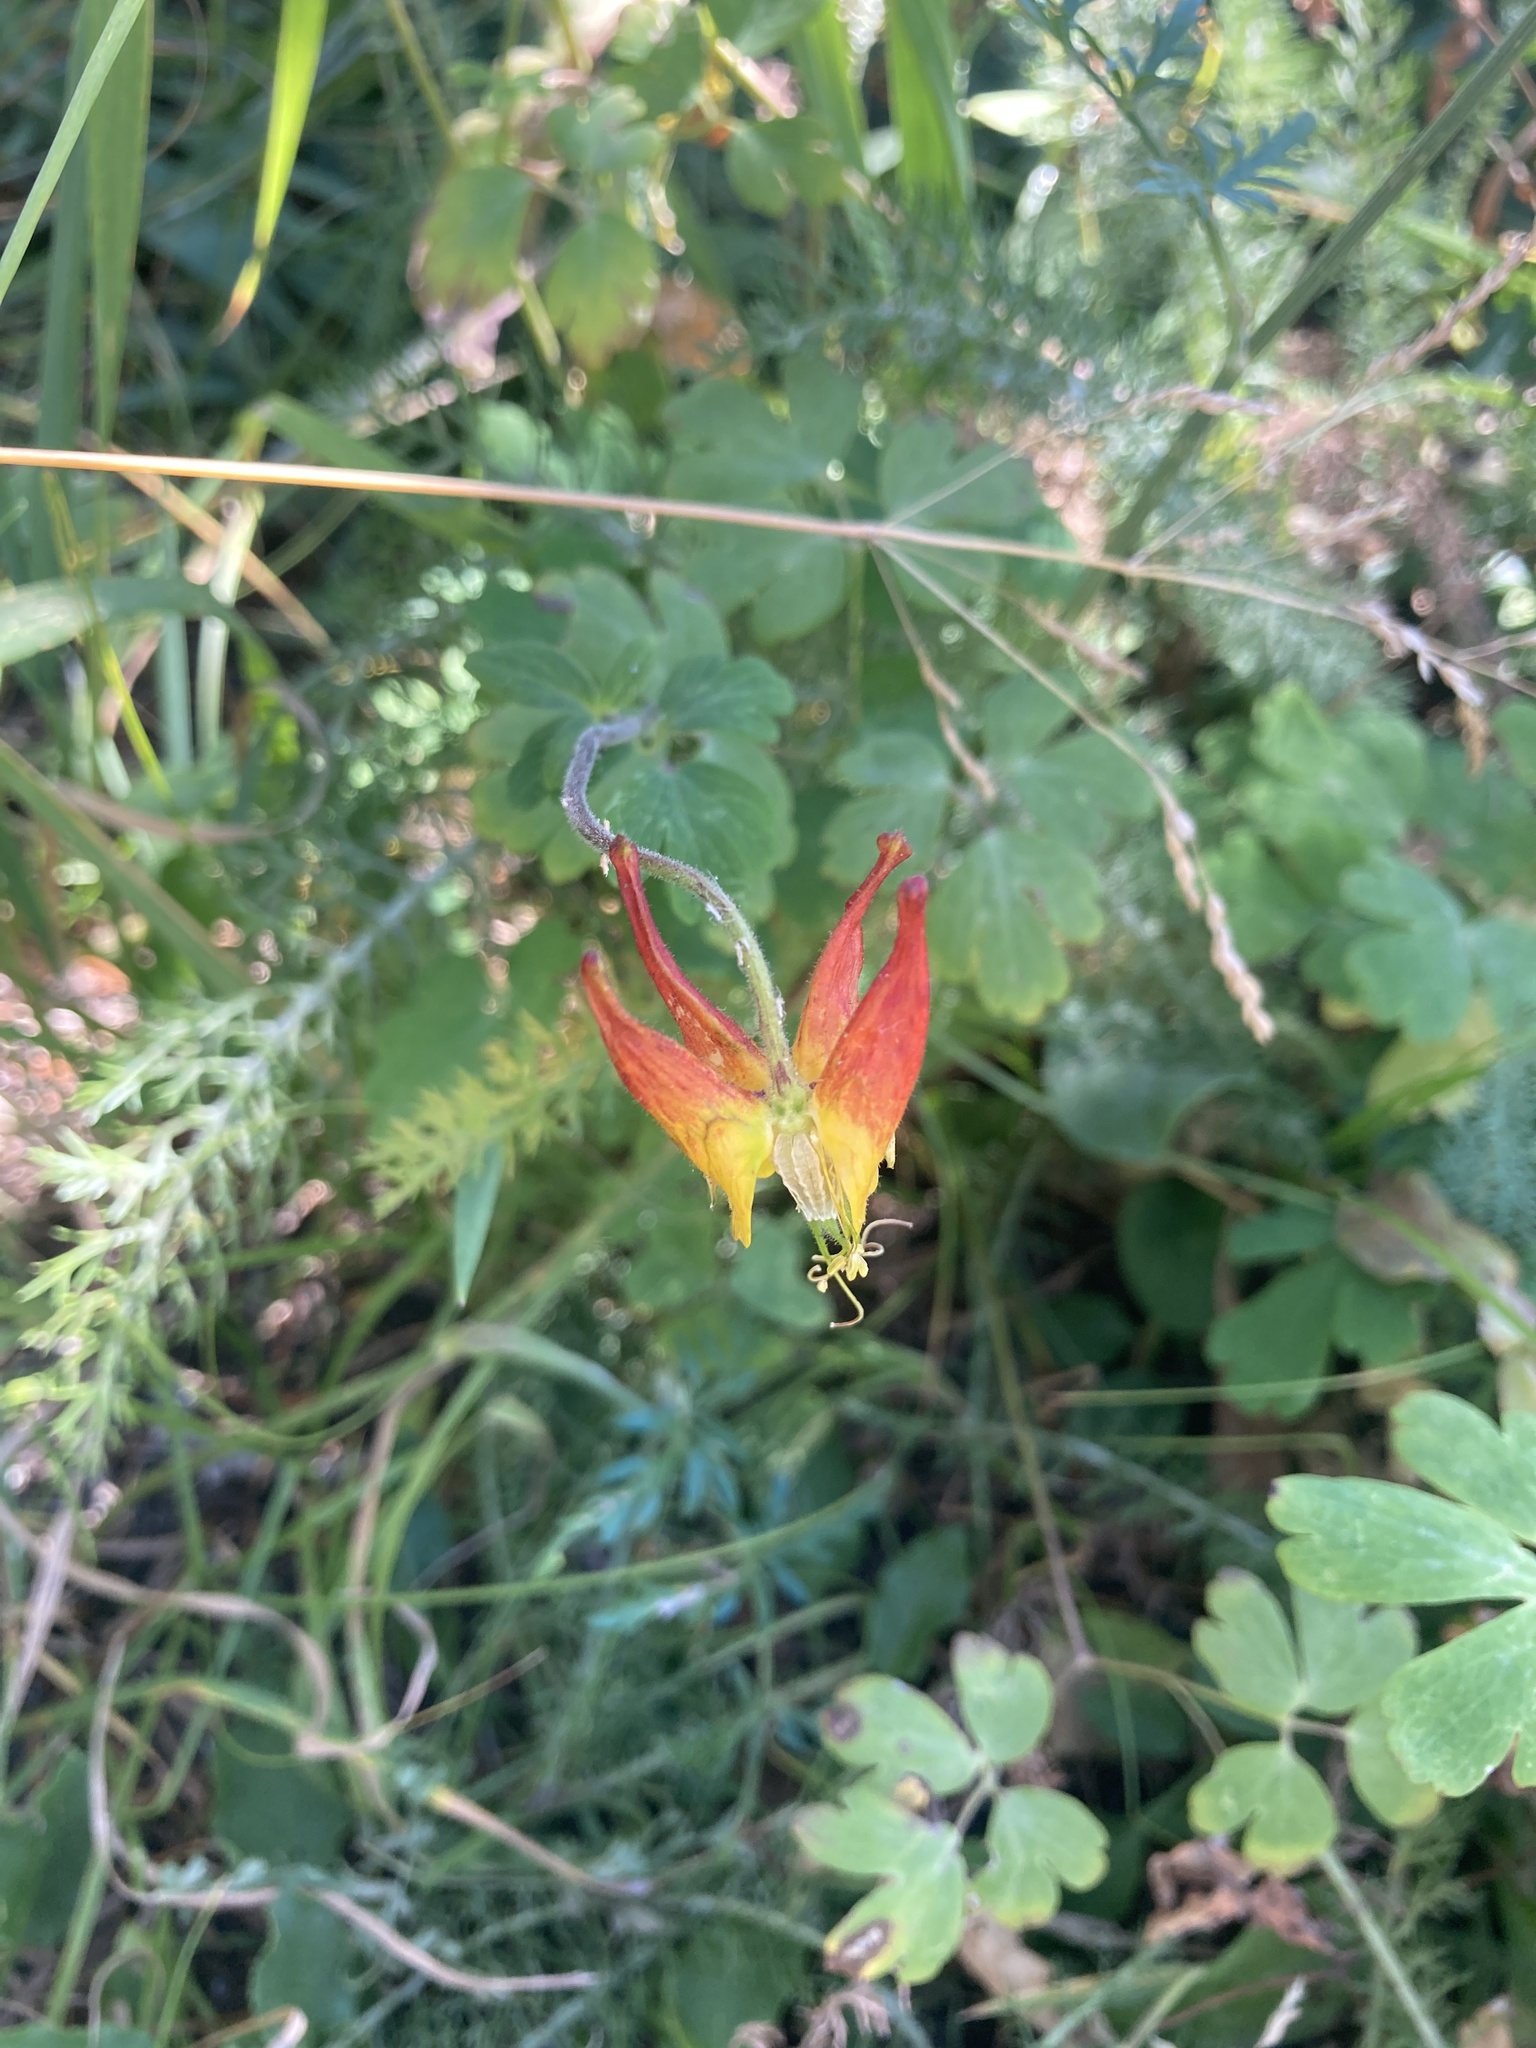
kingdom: Plantae
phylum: Tracheophyta
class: Magnoliopsida
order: Ranunculales
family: Ranunculaceae
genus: Aquilegia
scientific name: Aquilegia elegantula
